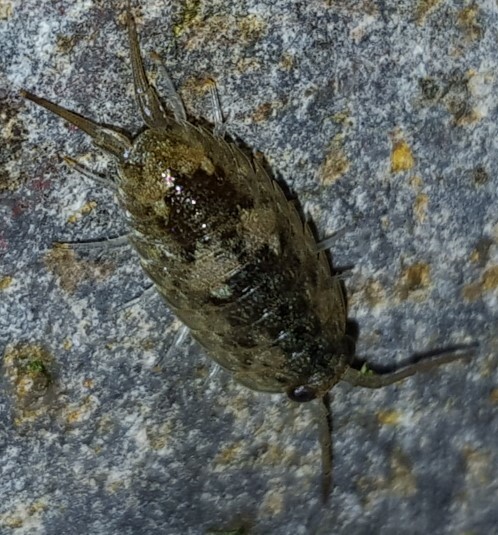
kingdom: Animalia
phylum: Arthropoda
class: Malacostraca
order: Isopoda
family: Ligiidae
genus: Ligia
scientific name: Ligia oceanica
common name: Sea slater
